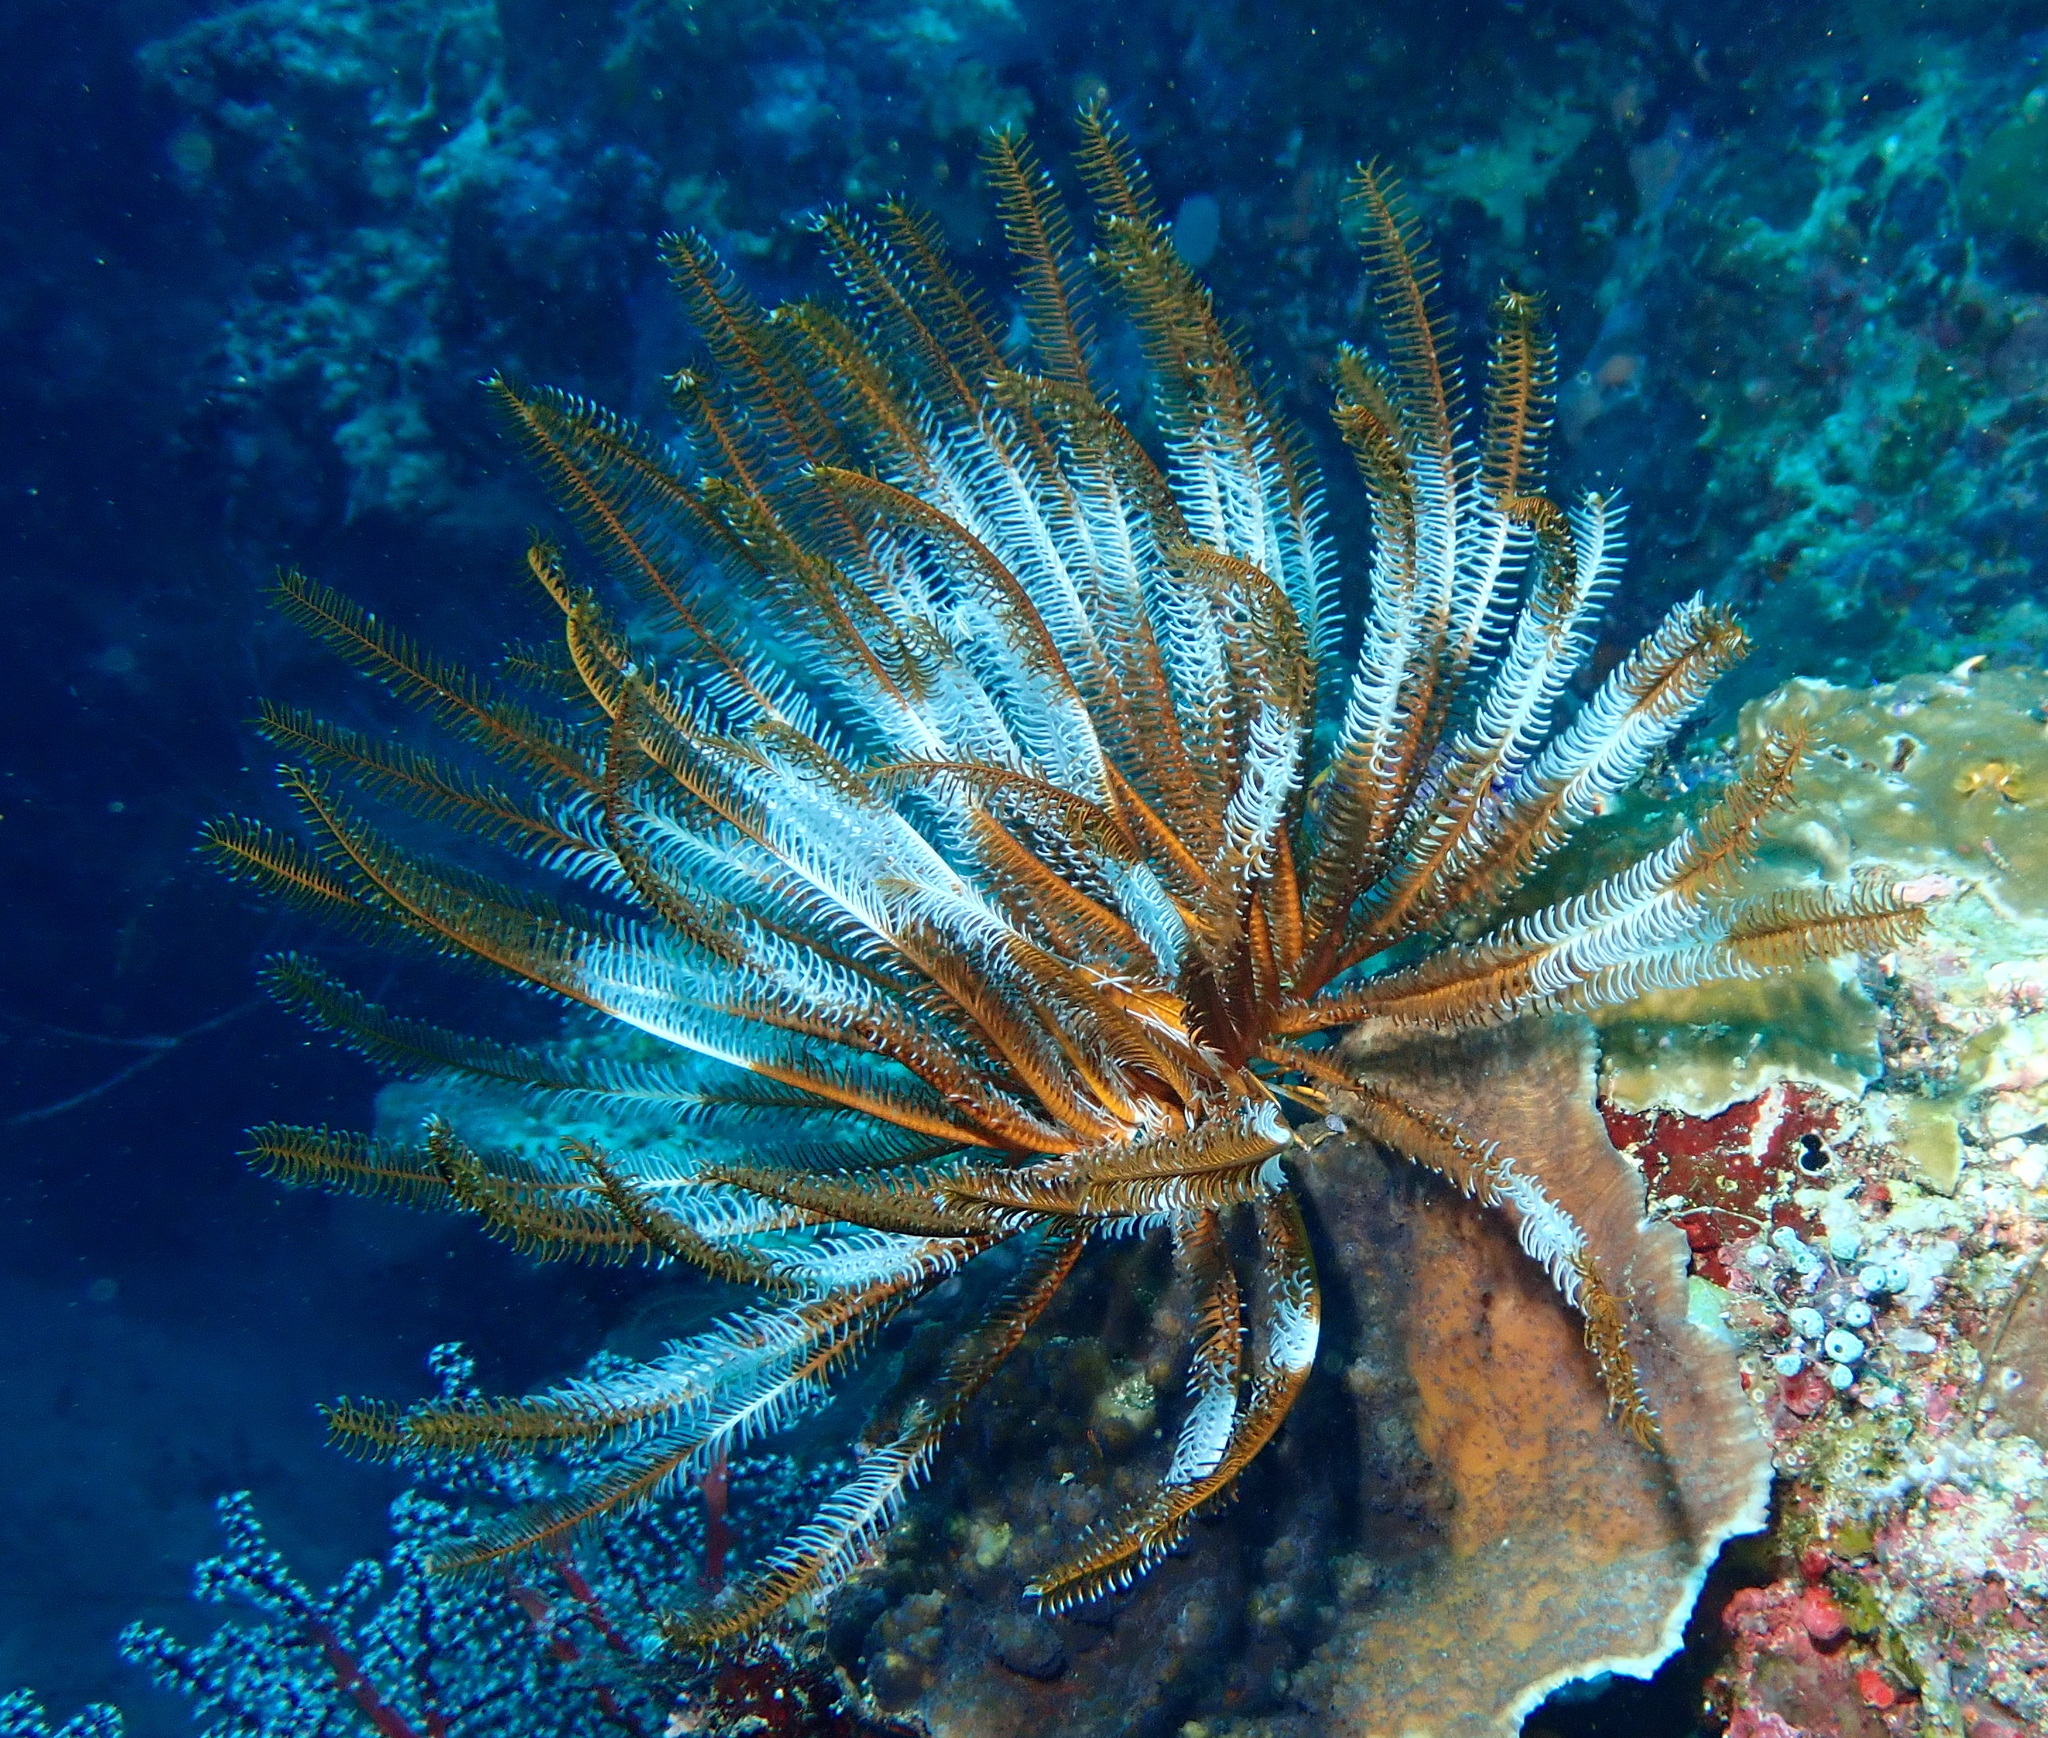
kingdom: Animalia
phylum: Echinodermata
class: Crinoidea
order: Comatulida
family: Comatulidae
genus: Anneissia
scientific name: Anneissia bennetti
